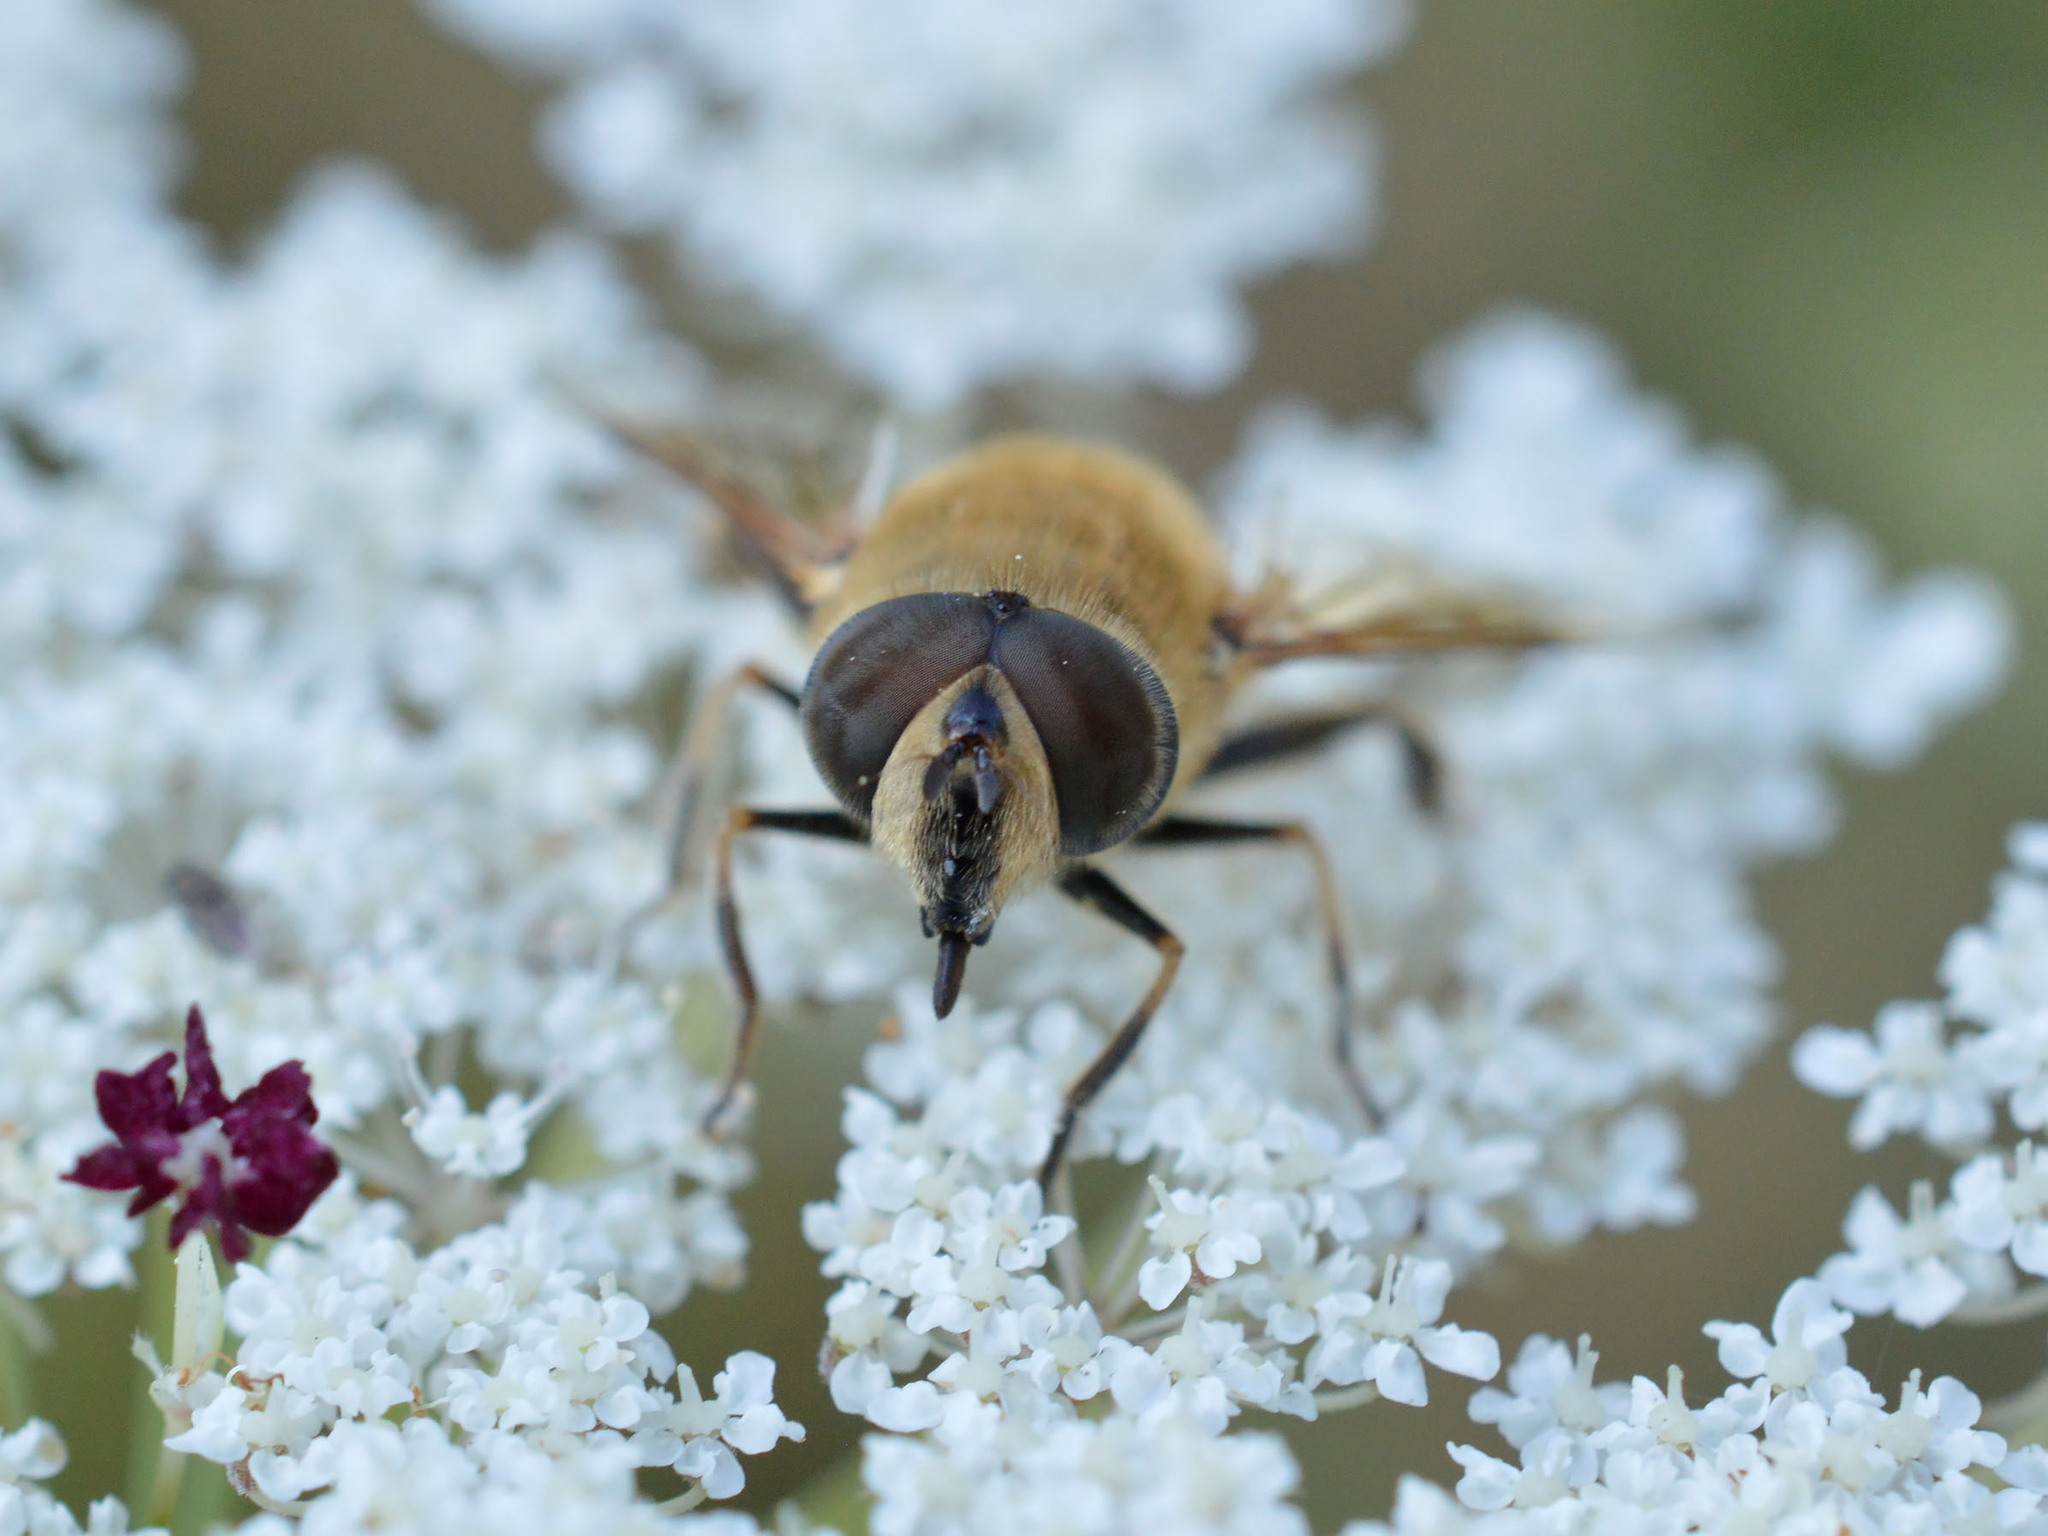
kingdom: Animalia
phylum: Arthropoda
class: Insecta
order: Diptera
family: Syrphidae
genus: Eristalis
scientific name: Eristalis tenax
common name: Drone fly
